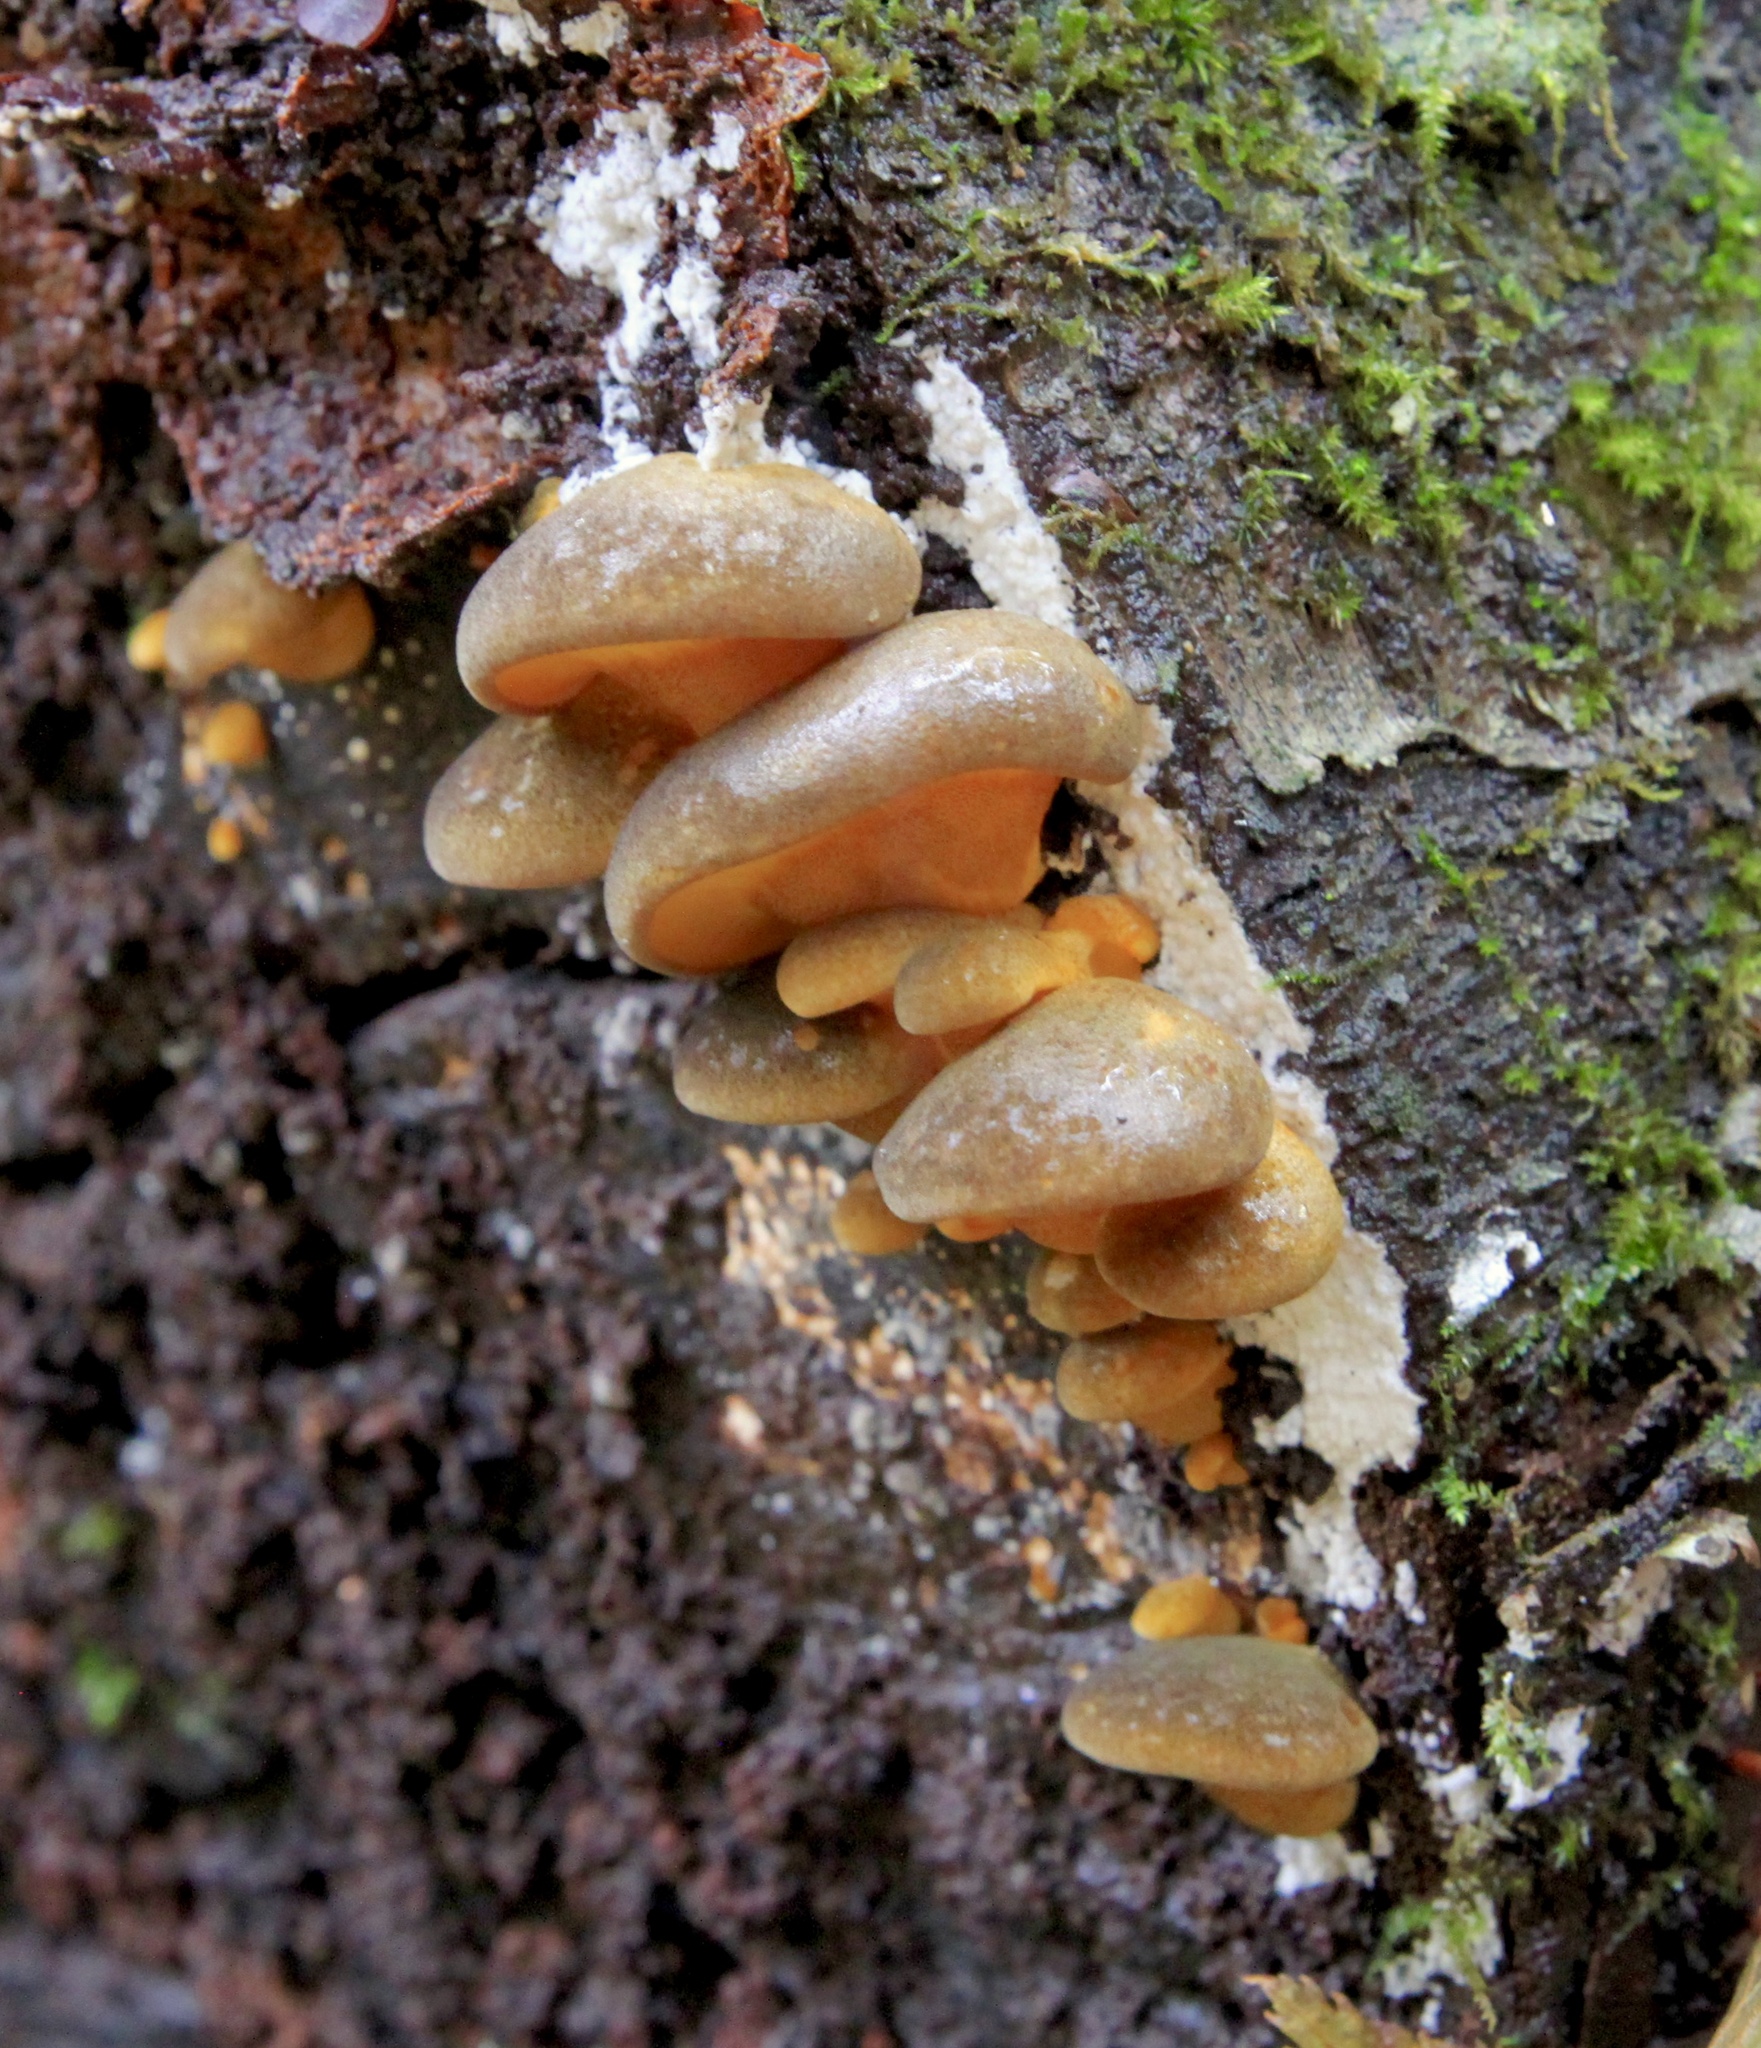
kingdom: Fungi
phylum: Basidiomycota
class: Agaricomycetes
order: Agaricales
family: Sarcomyxaceae
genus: Sarcomyxa
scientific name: Sarcomyxa serotina
